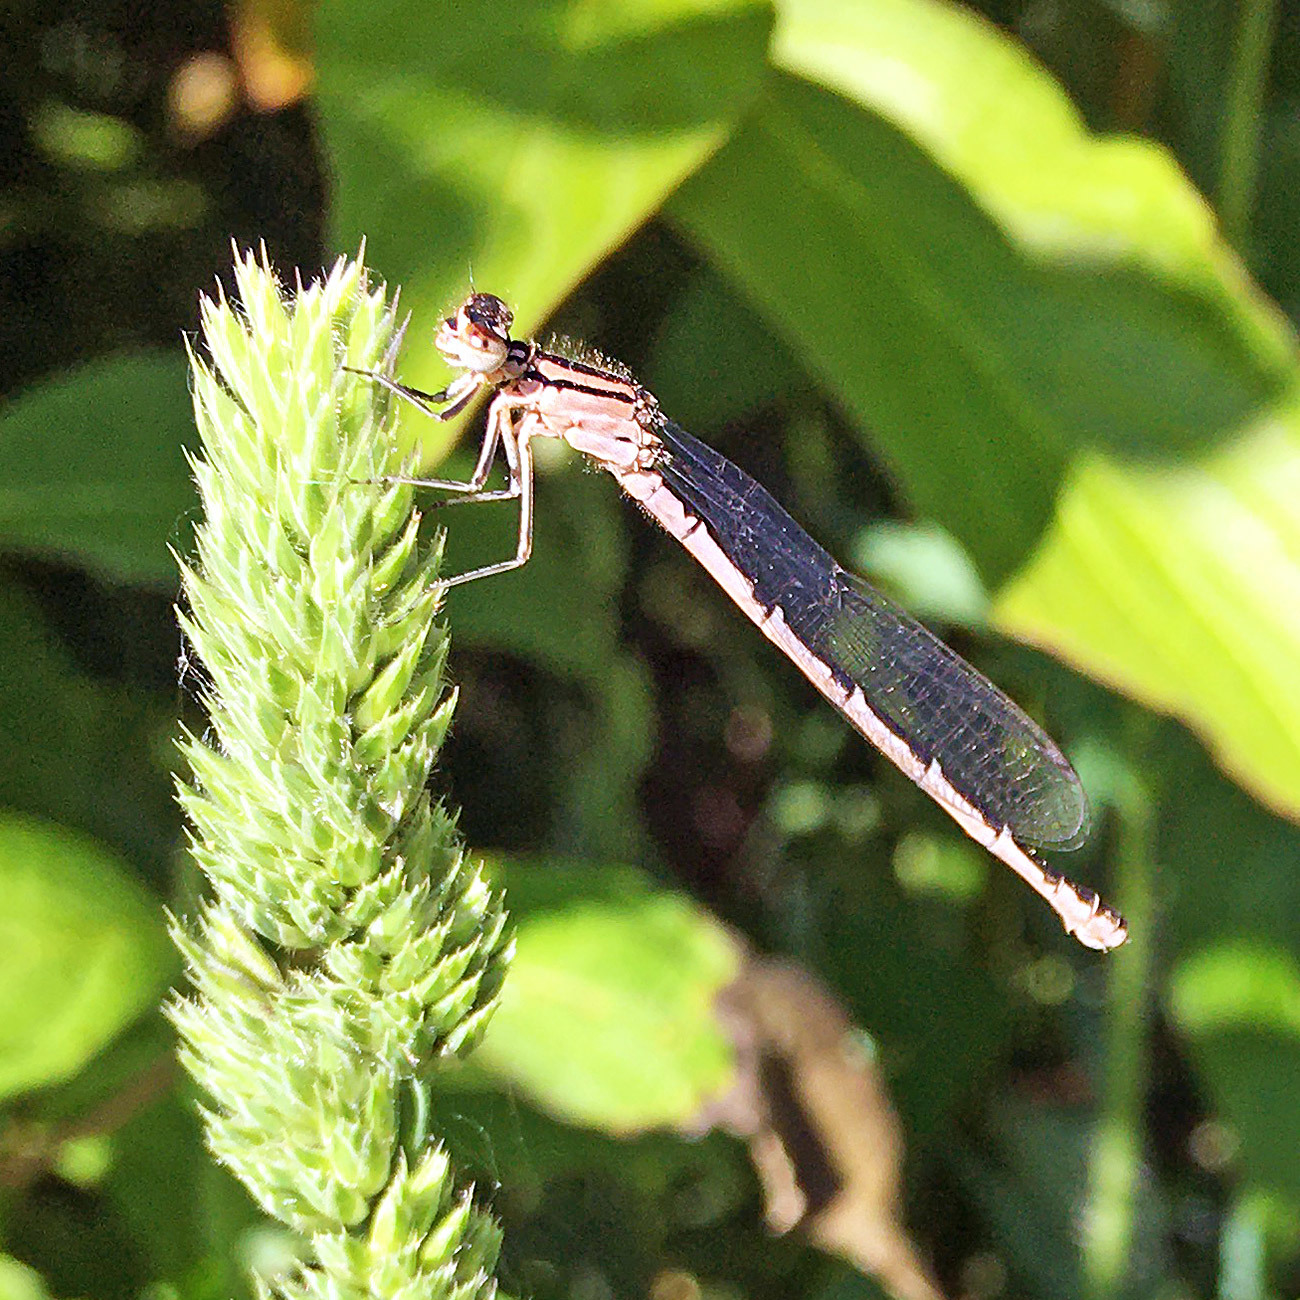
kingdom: Animalia
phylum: Arthropoda
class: Insecta
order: Odonata
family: Coenagrionidae
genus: Enallagma
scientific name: Enallagma cyathigerum
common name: Common blue damselfly
